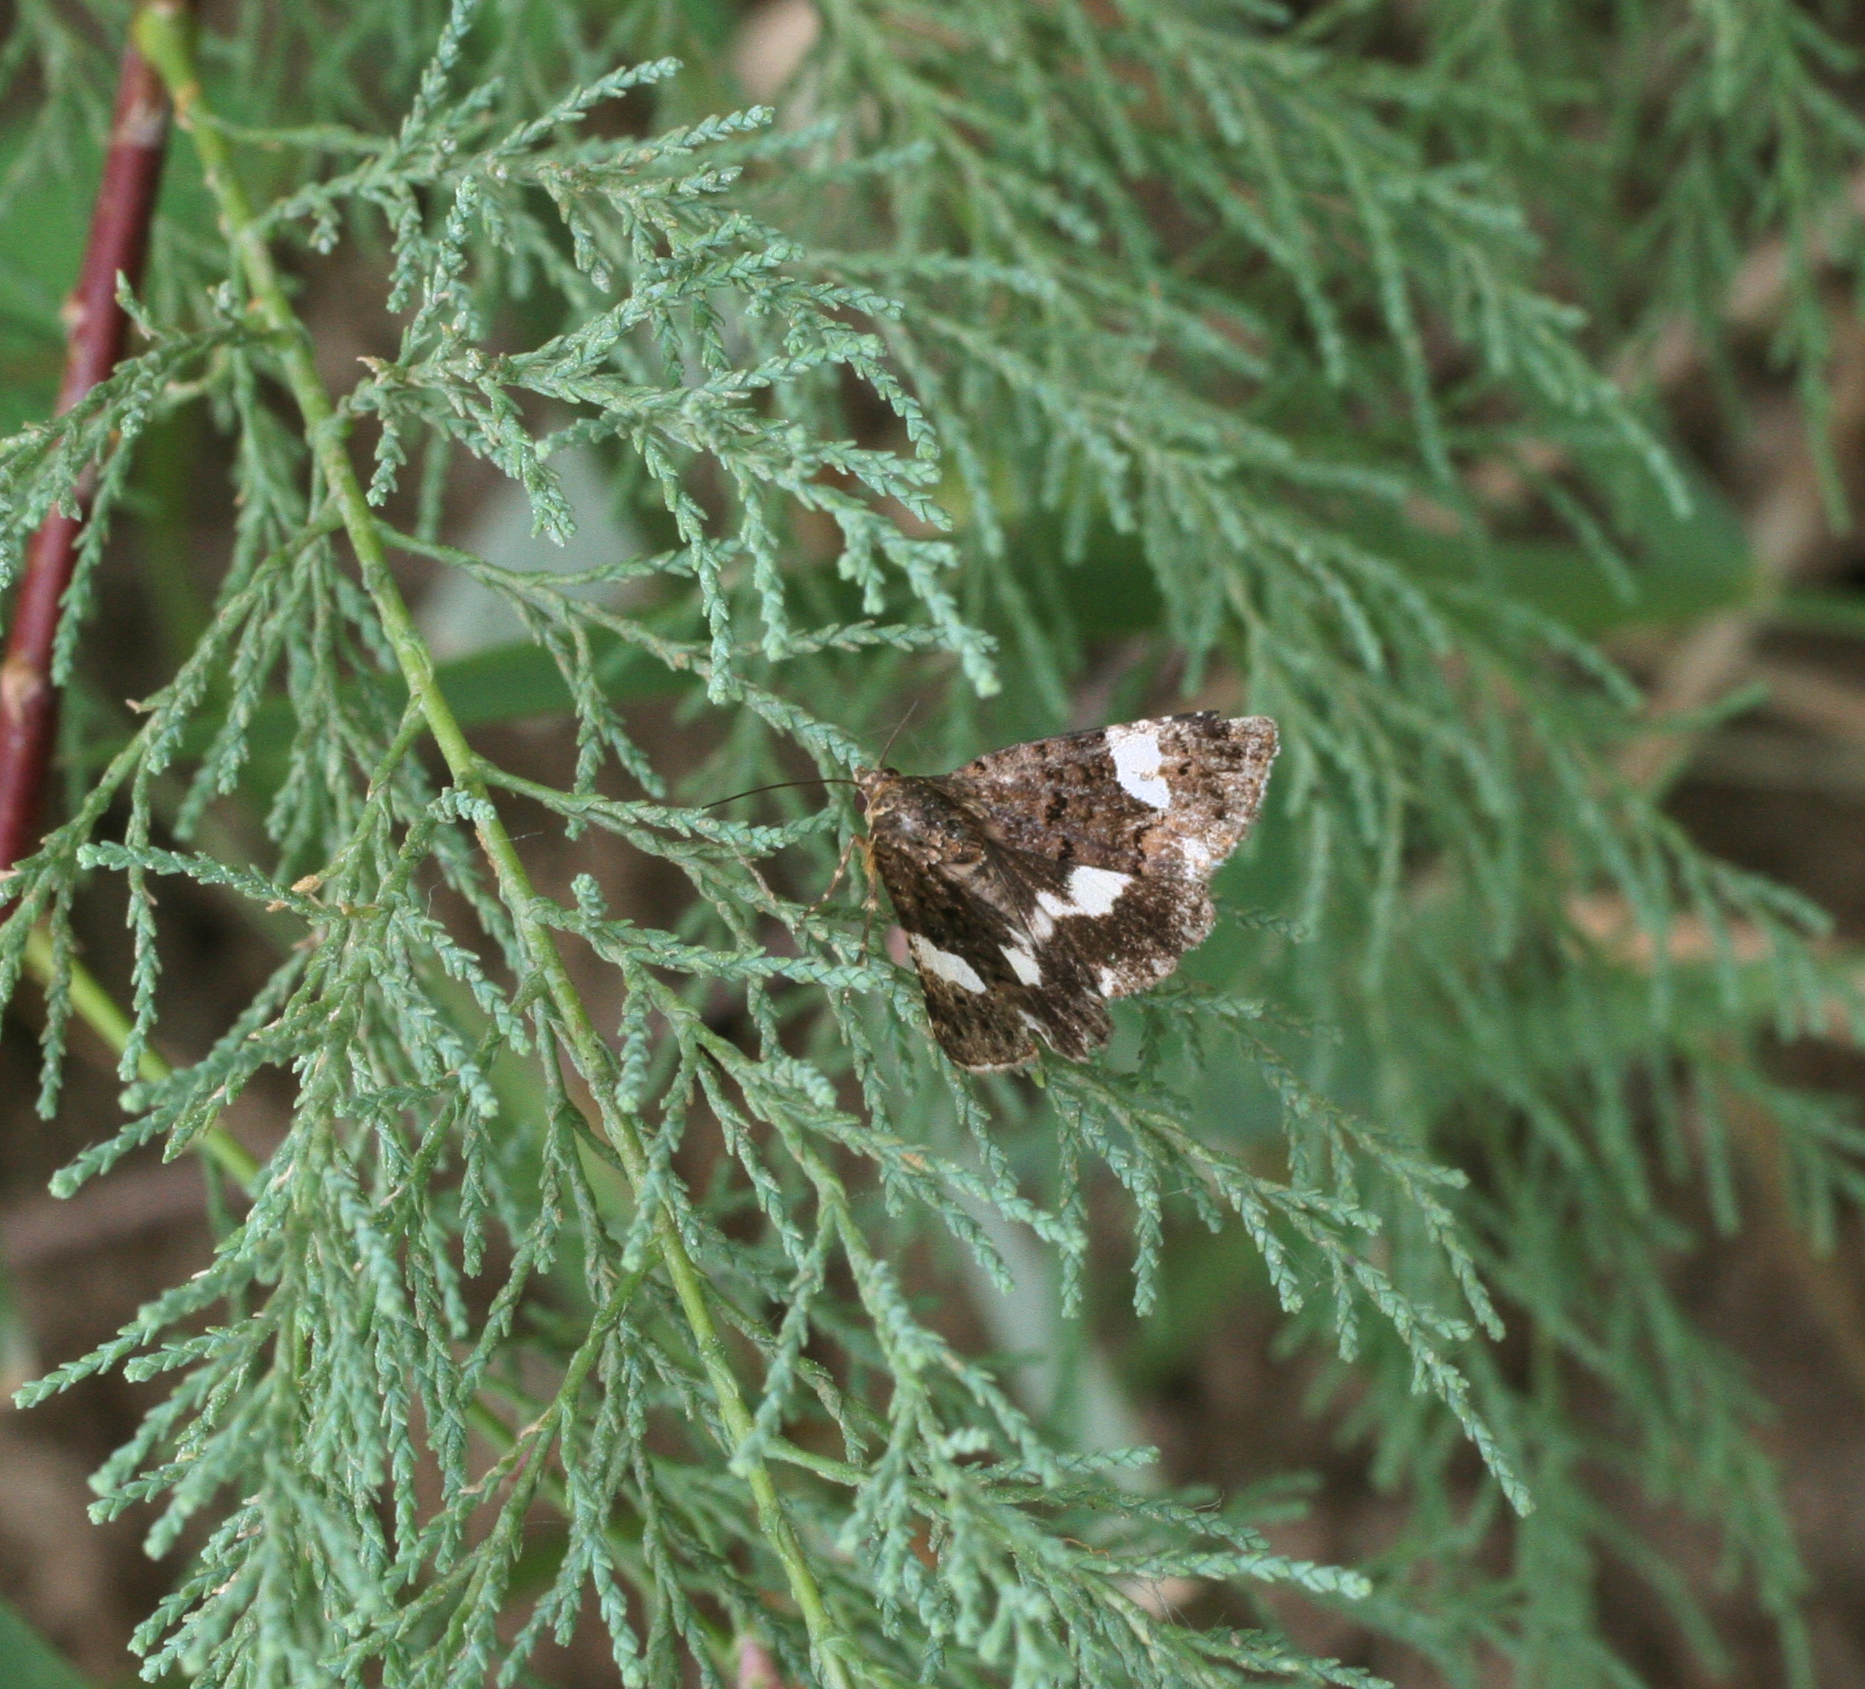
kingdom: Animalia
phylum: Arthropoda
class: Insecta
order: Lepidoptera
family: Erebidae
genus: Tyta
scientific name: Tyta luctuosa
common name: Four-spotted
